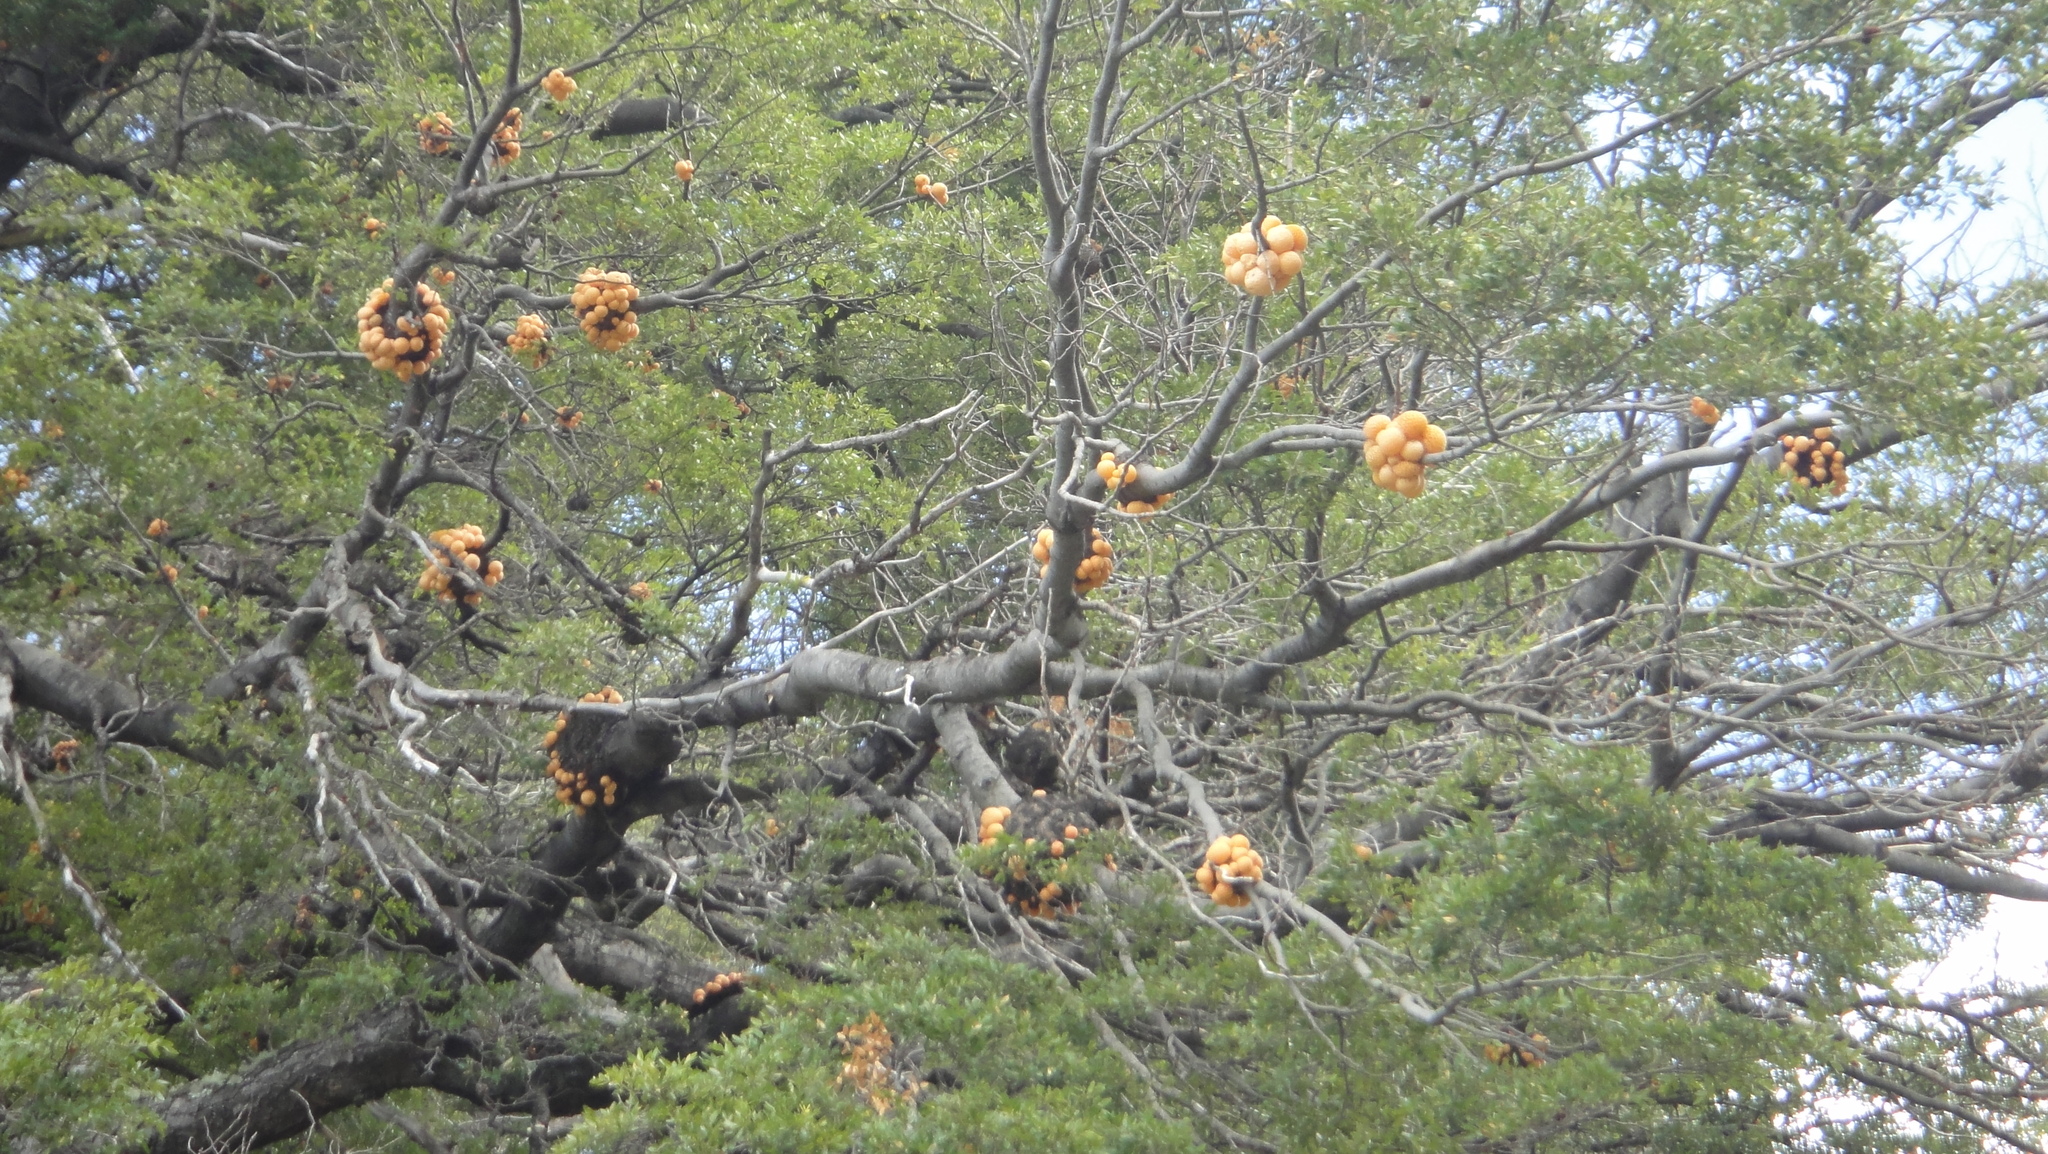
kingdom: Fungi
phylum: Ascomycota
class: Leotiomycetes
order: Cyttariales
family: Cyttariaceae
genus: Cyttaria
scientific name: Cyttaria hariotii
